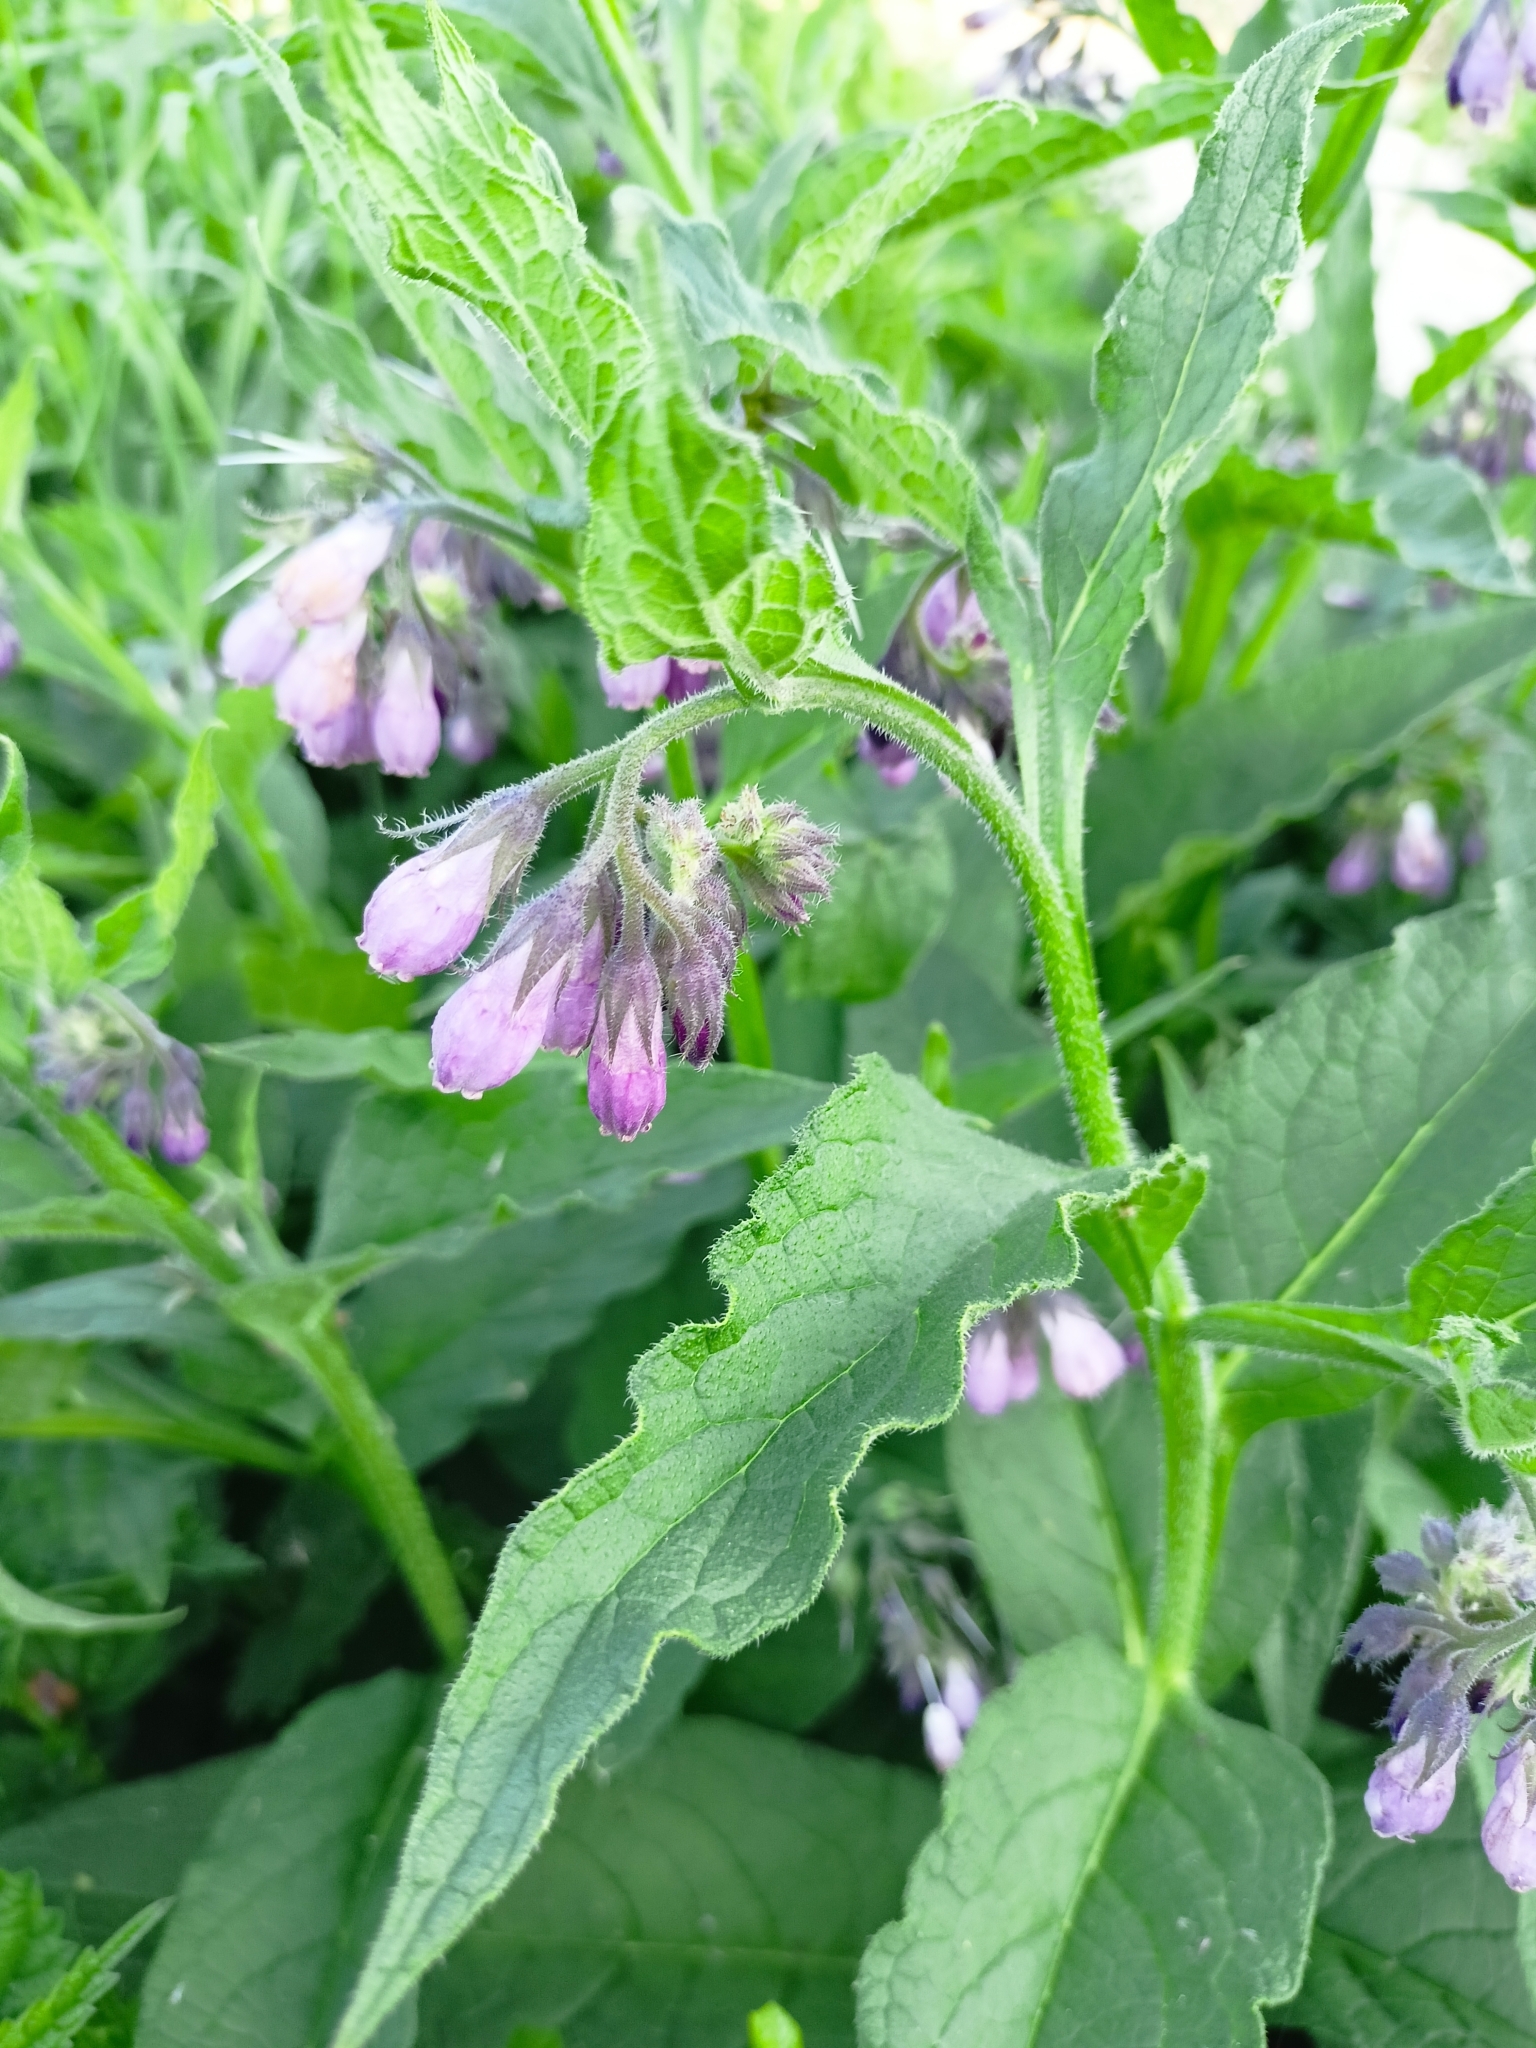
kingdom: Plantae
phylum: Tracheophyta
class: Magnoliopsida
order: Boraginales
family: Boraginaceae
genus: Symphytum
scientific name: Symphytum officinale
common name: Common comfrey
